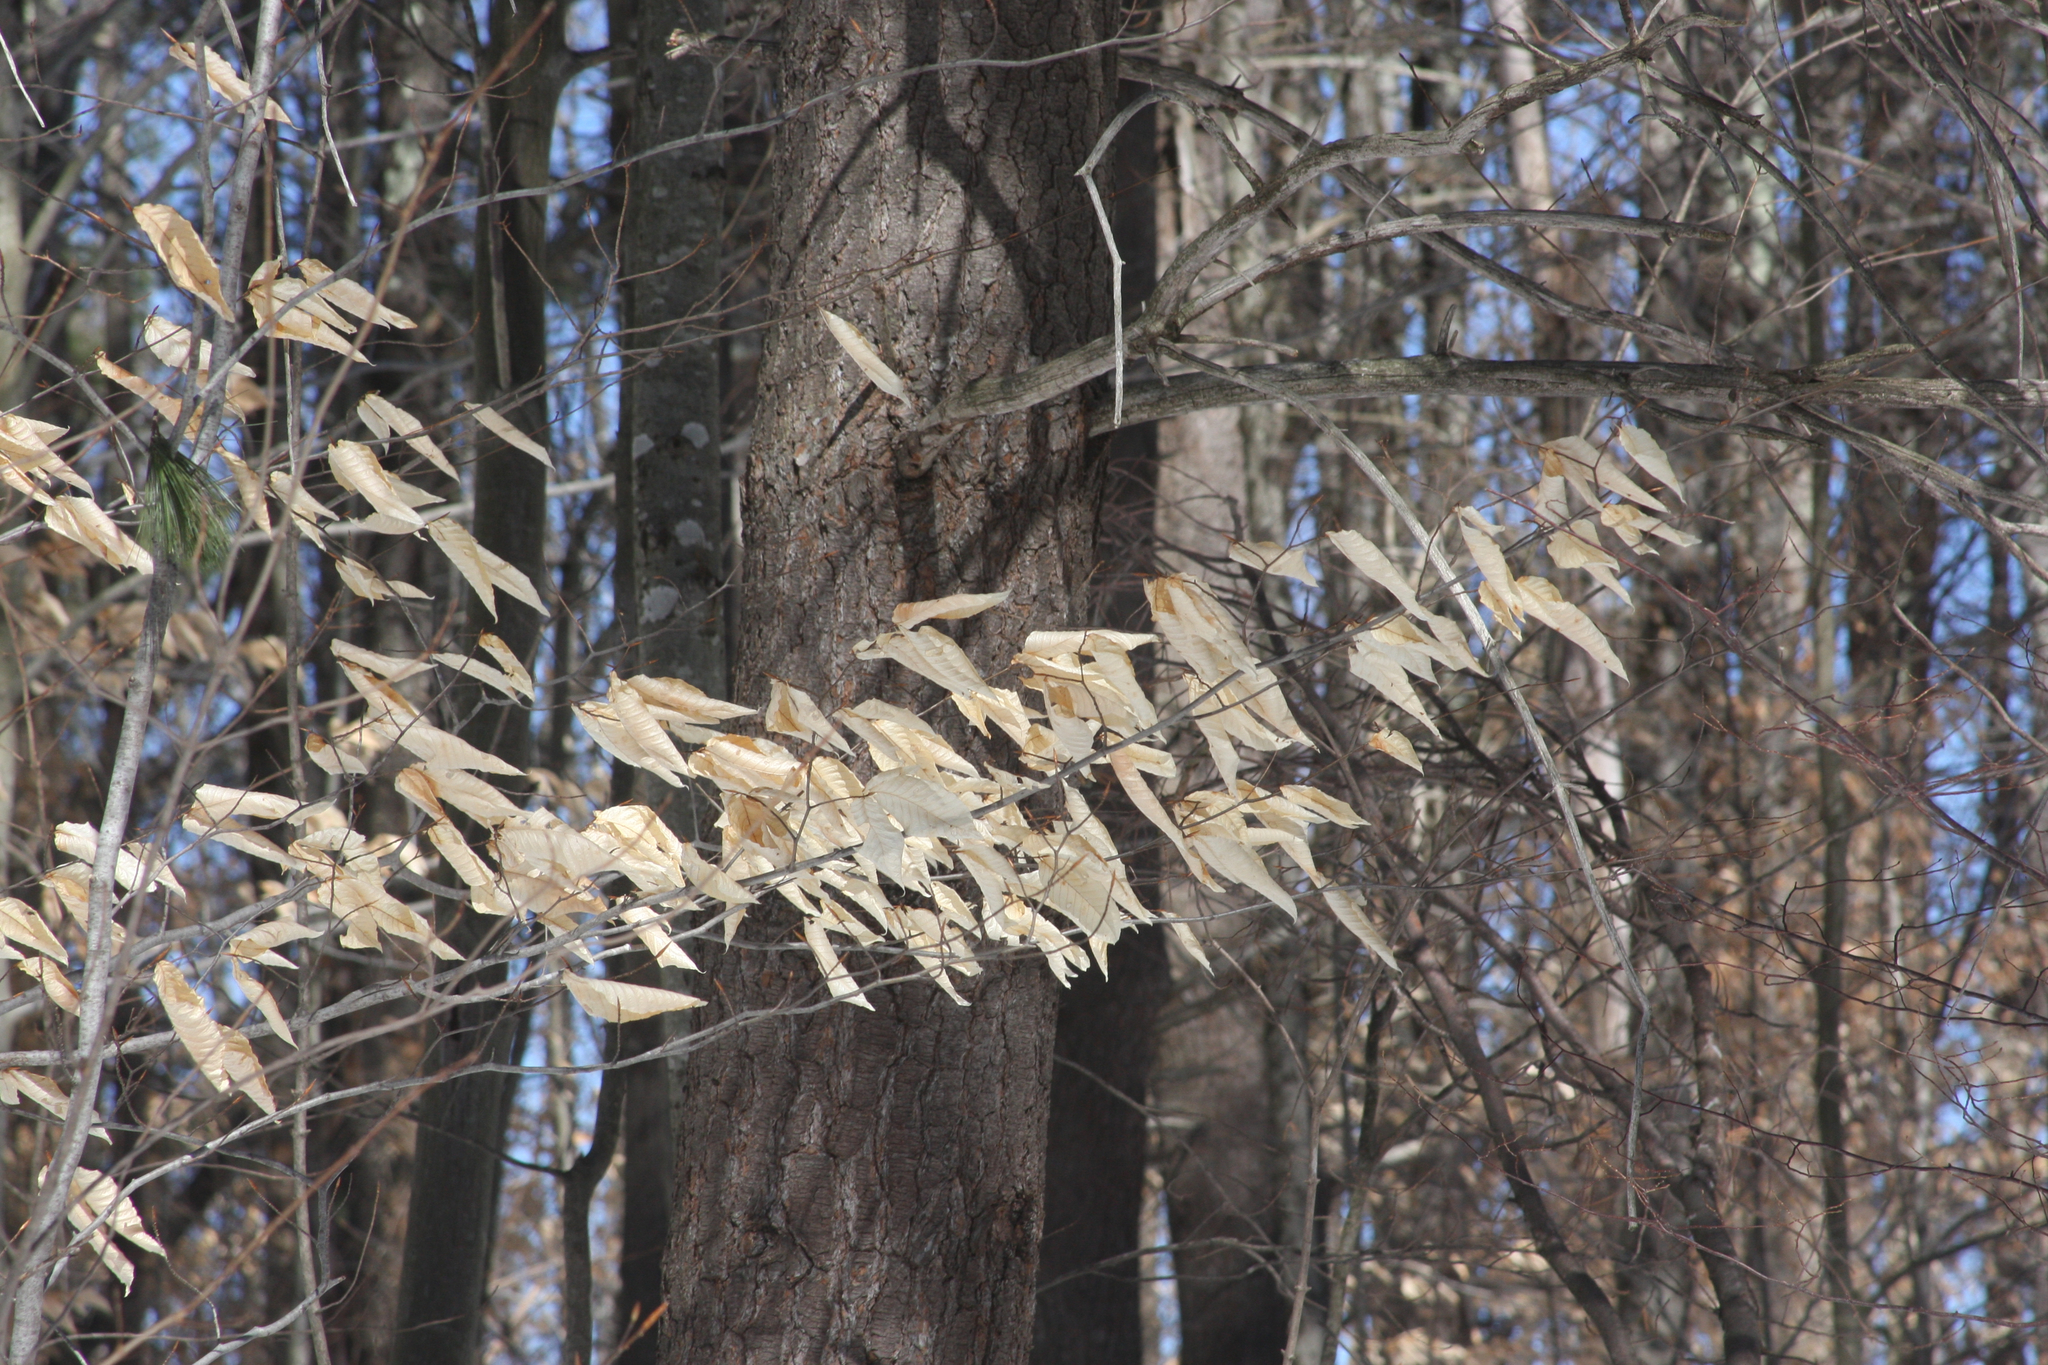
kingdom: Plantae
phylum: Tracheophyta
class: Magnoliopsida
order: Fagales
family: Fagaceae
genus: Fagus
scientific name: Fagus grandifolia
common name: American beech
